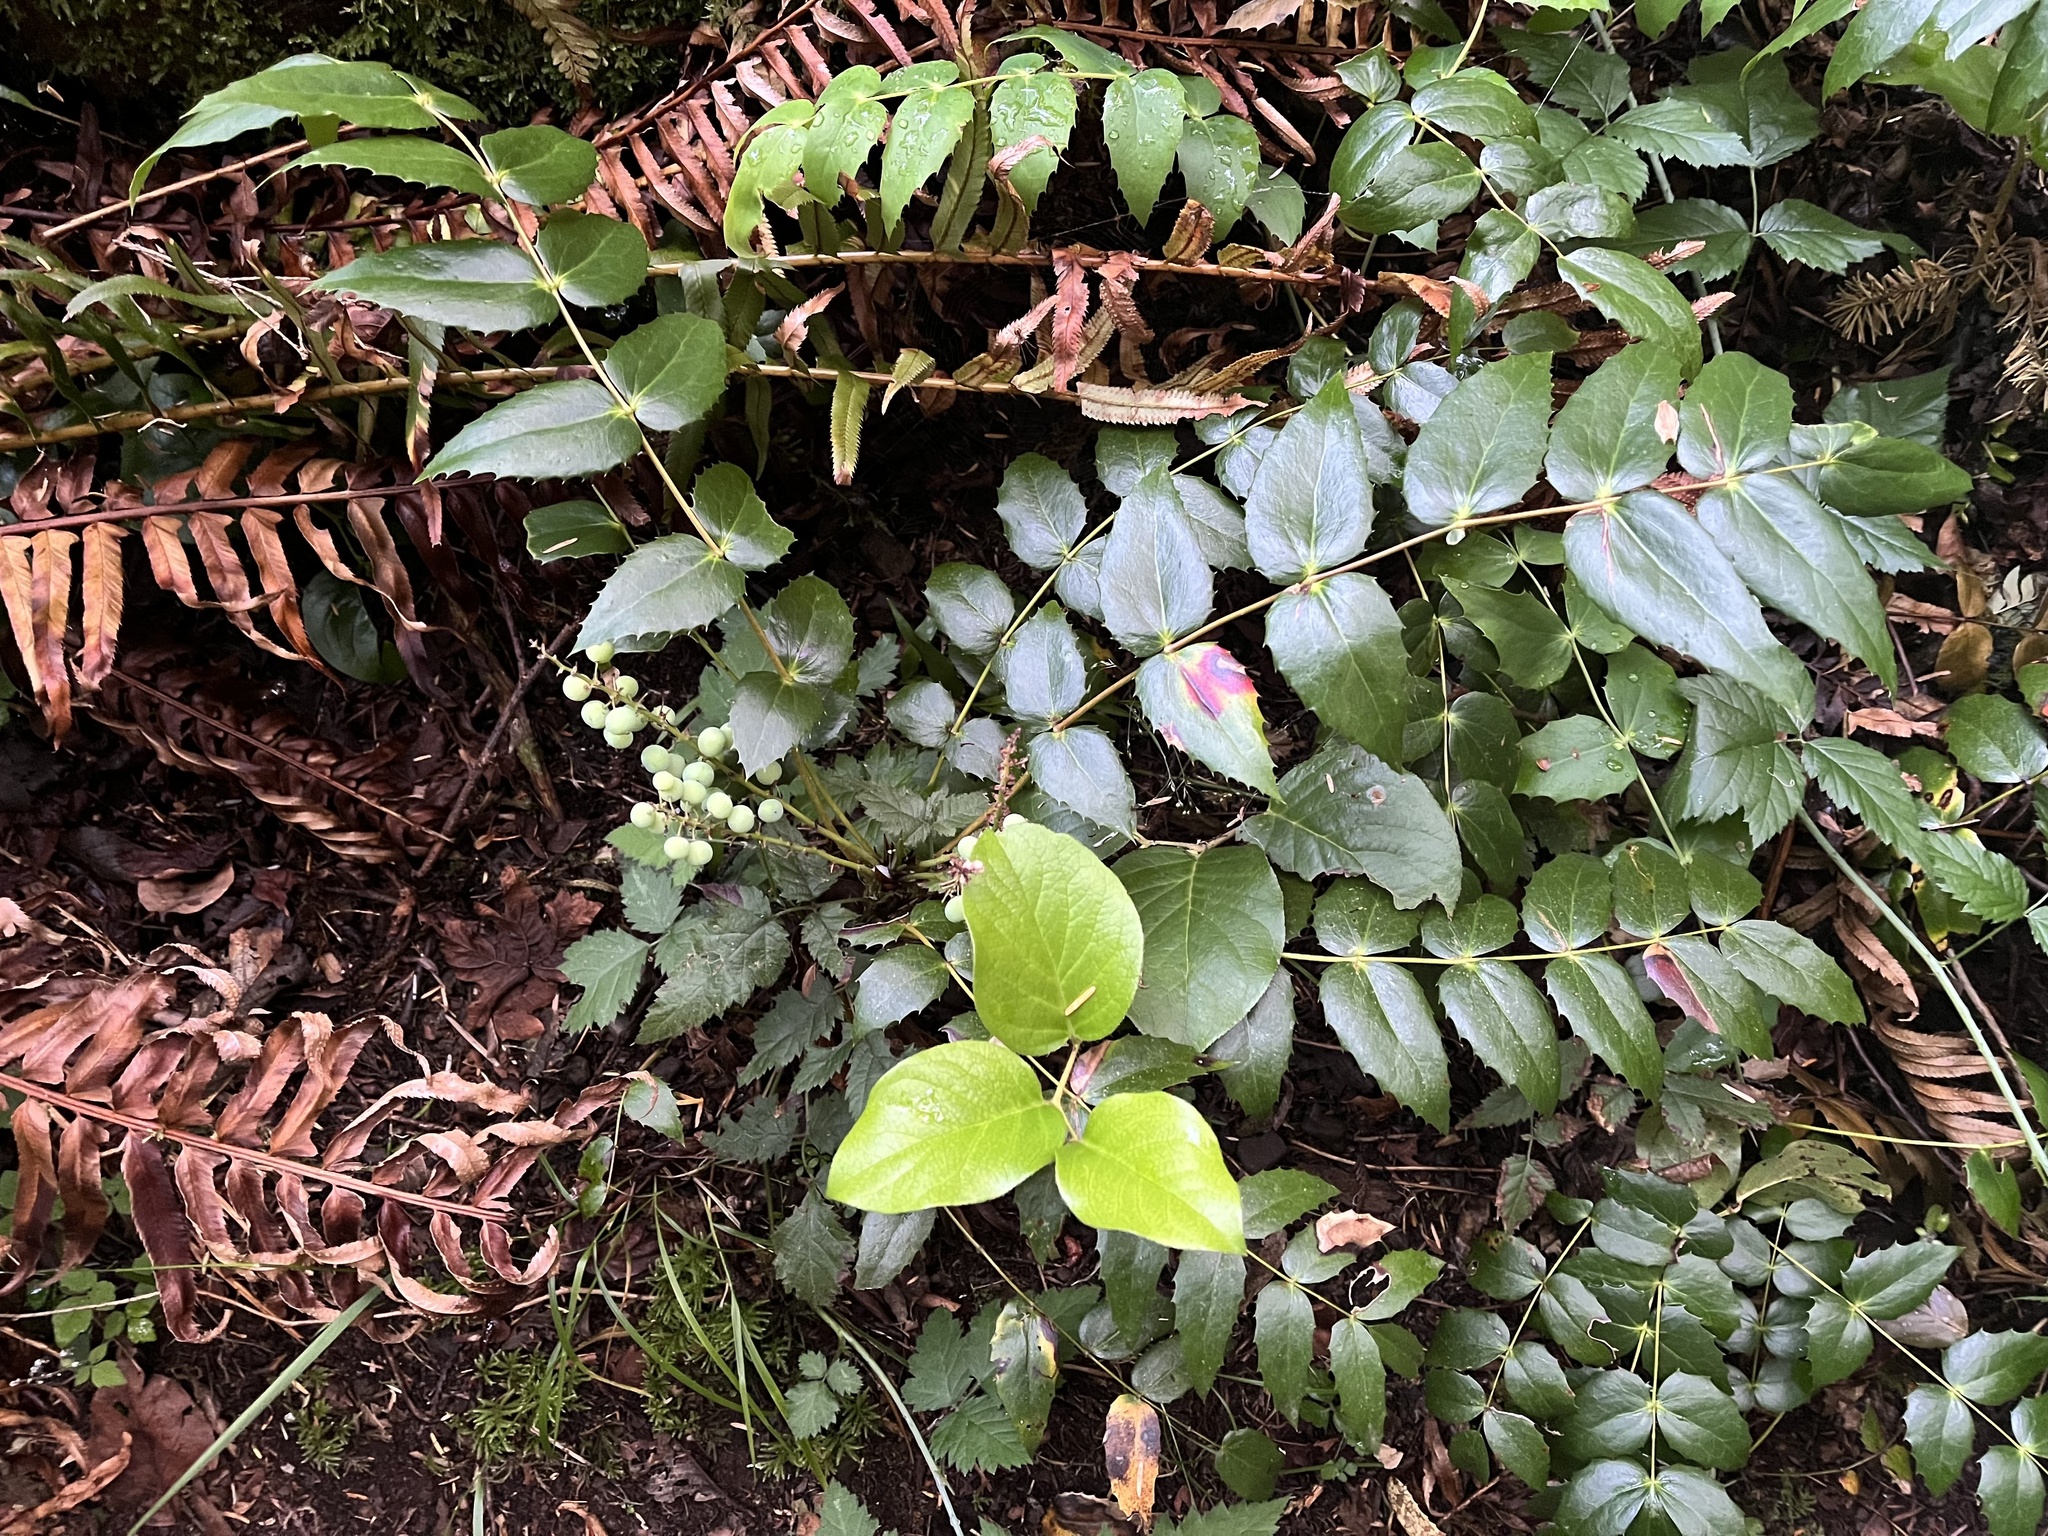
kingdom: Plantae
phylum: Tracheophyta
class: Magnoliopsida
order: Ranunculales
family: Berberidaceae
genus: Mahonia
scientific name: Mahonia nervosa
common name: Cascade oregon-grape
